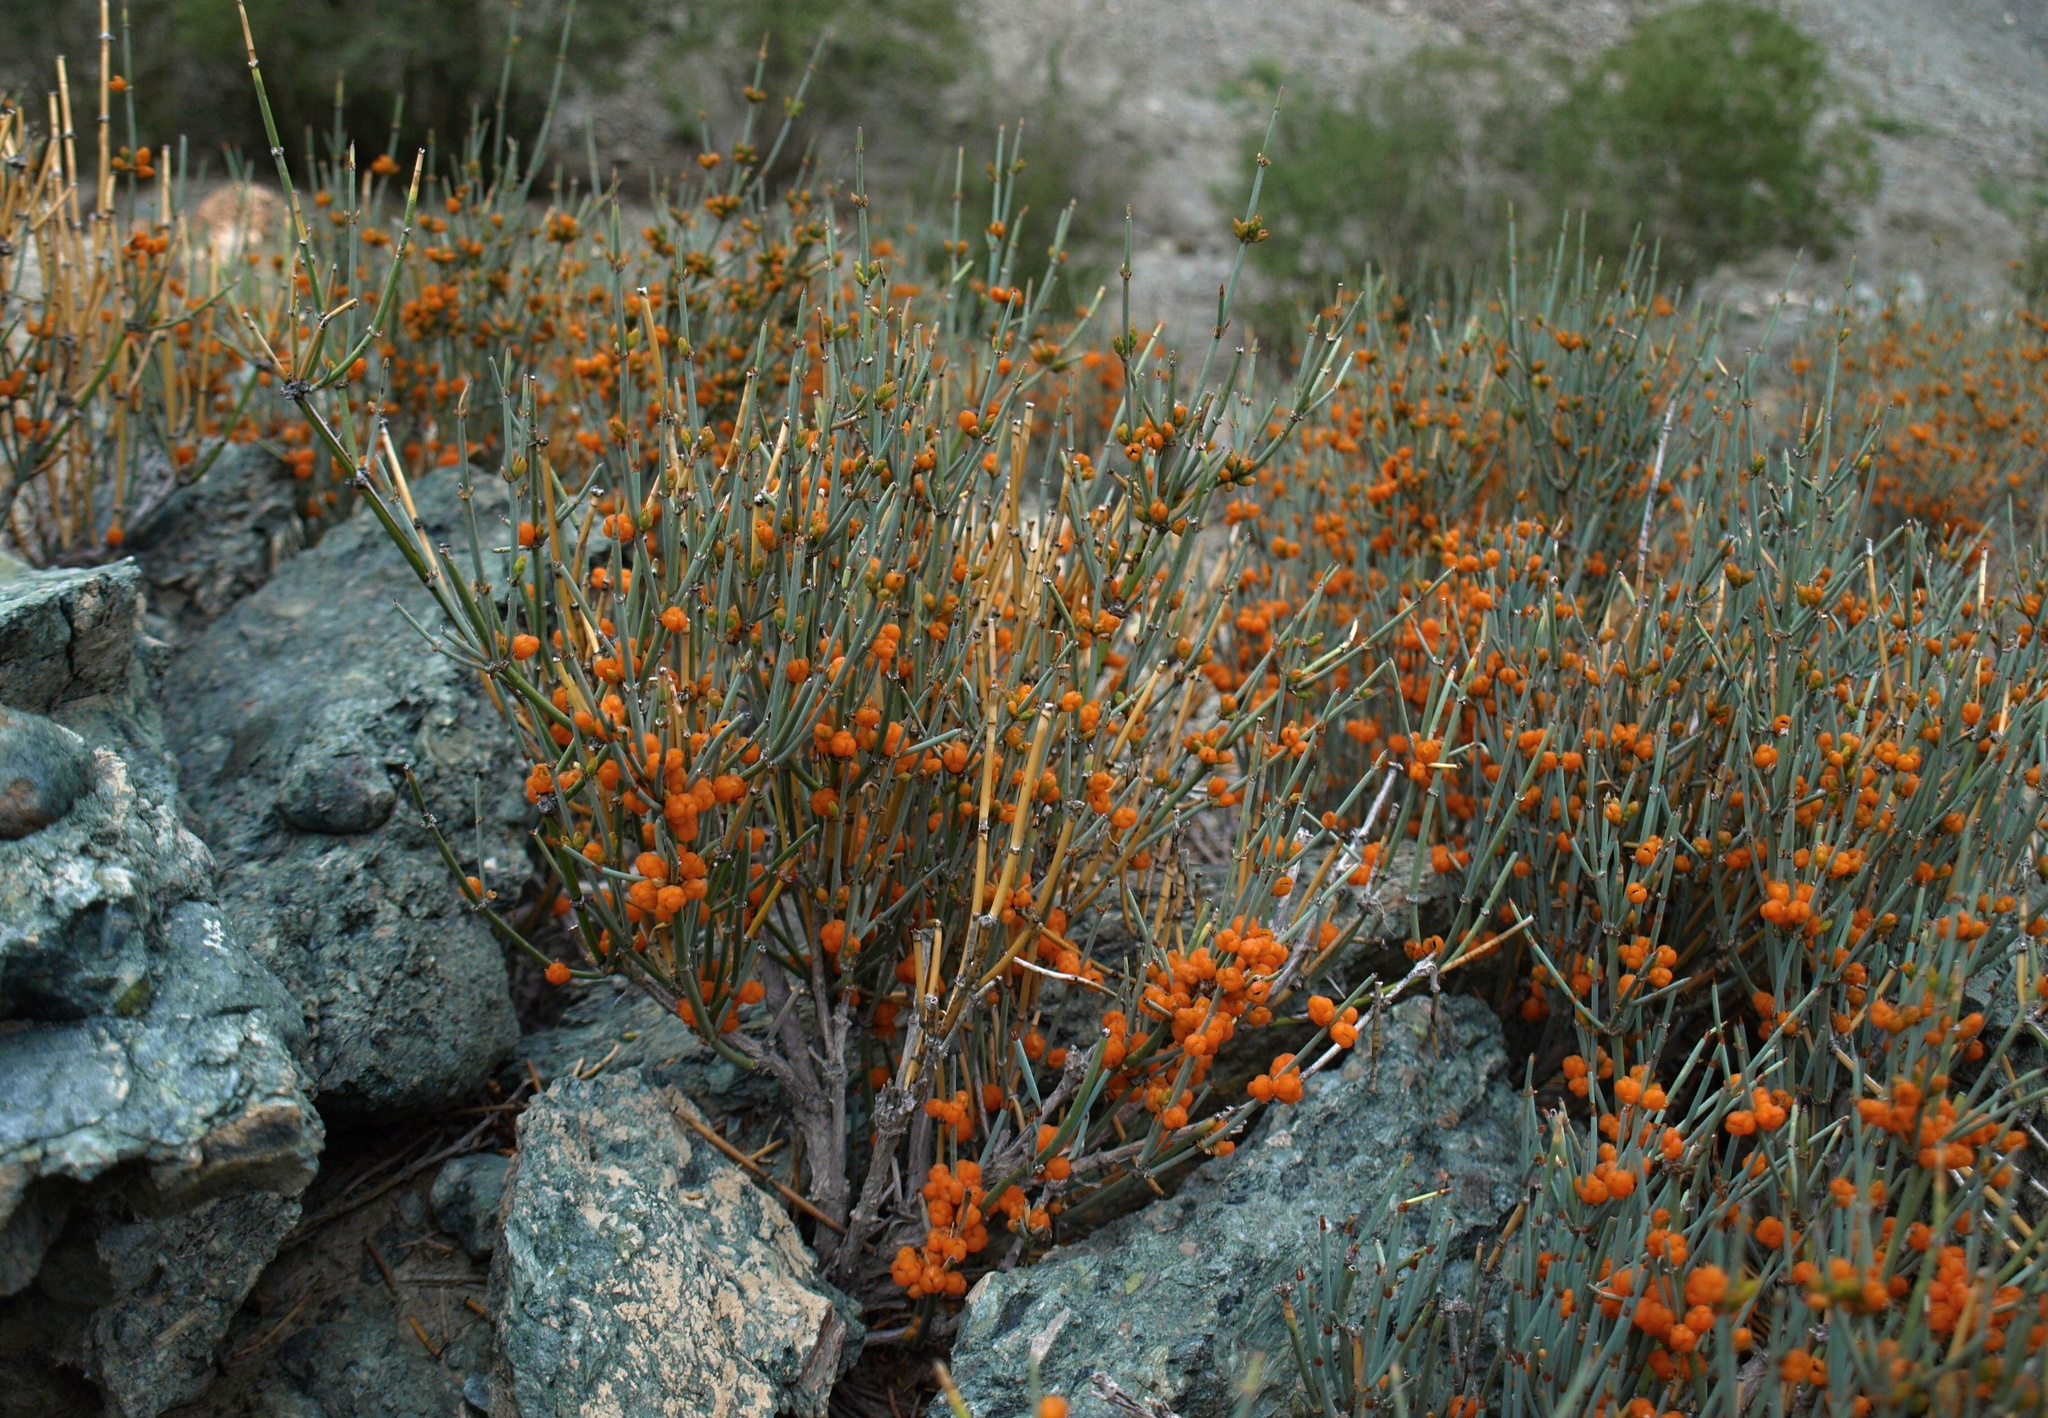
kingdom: Plantae
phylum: Tracheophyta
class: Gnetopsida
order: Ephedrales
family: Ephedraceae
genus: Ephedra
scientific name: Ephedra intermedia
